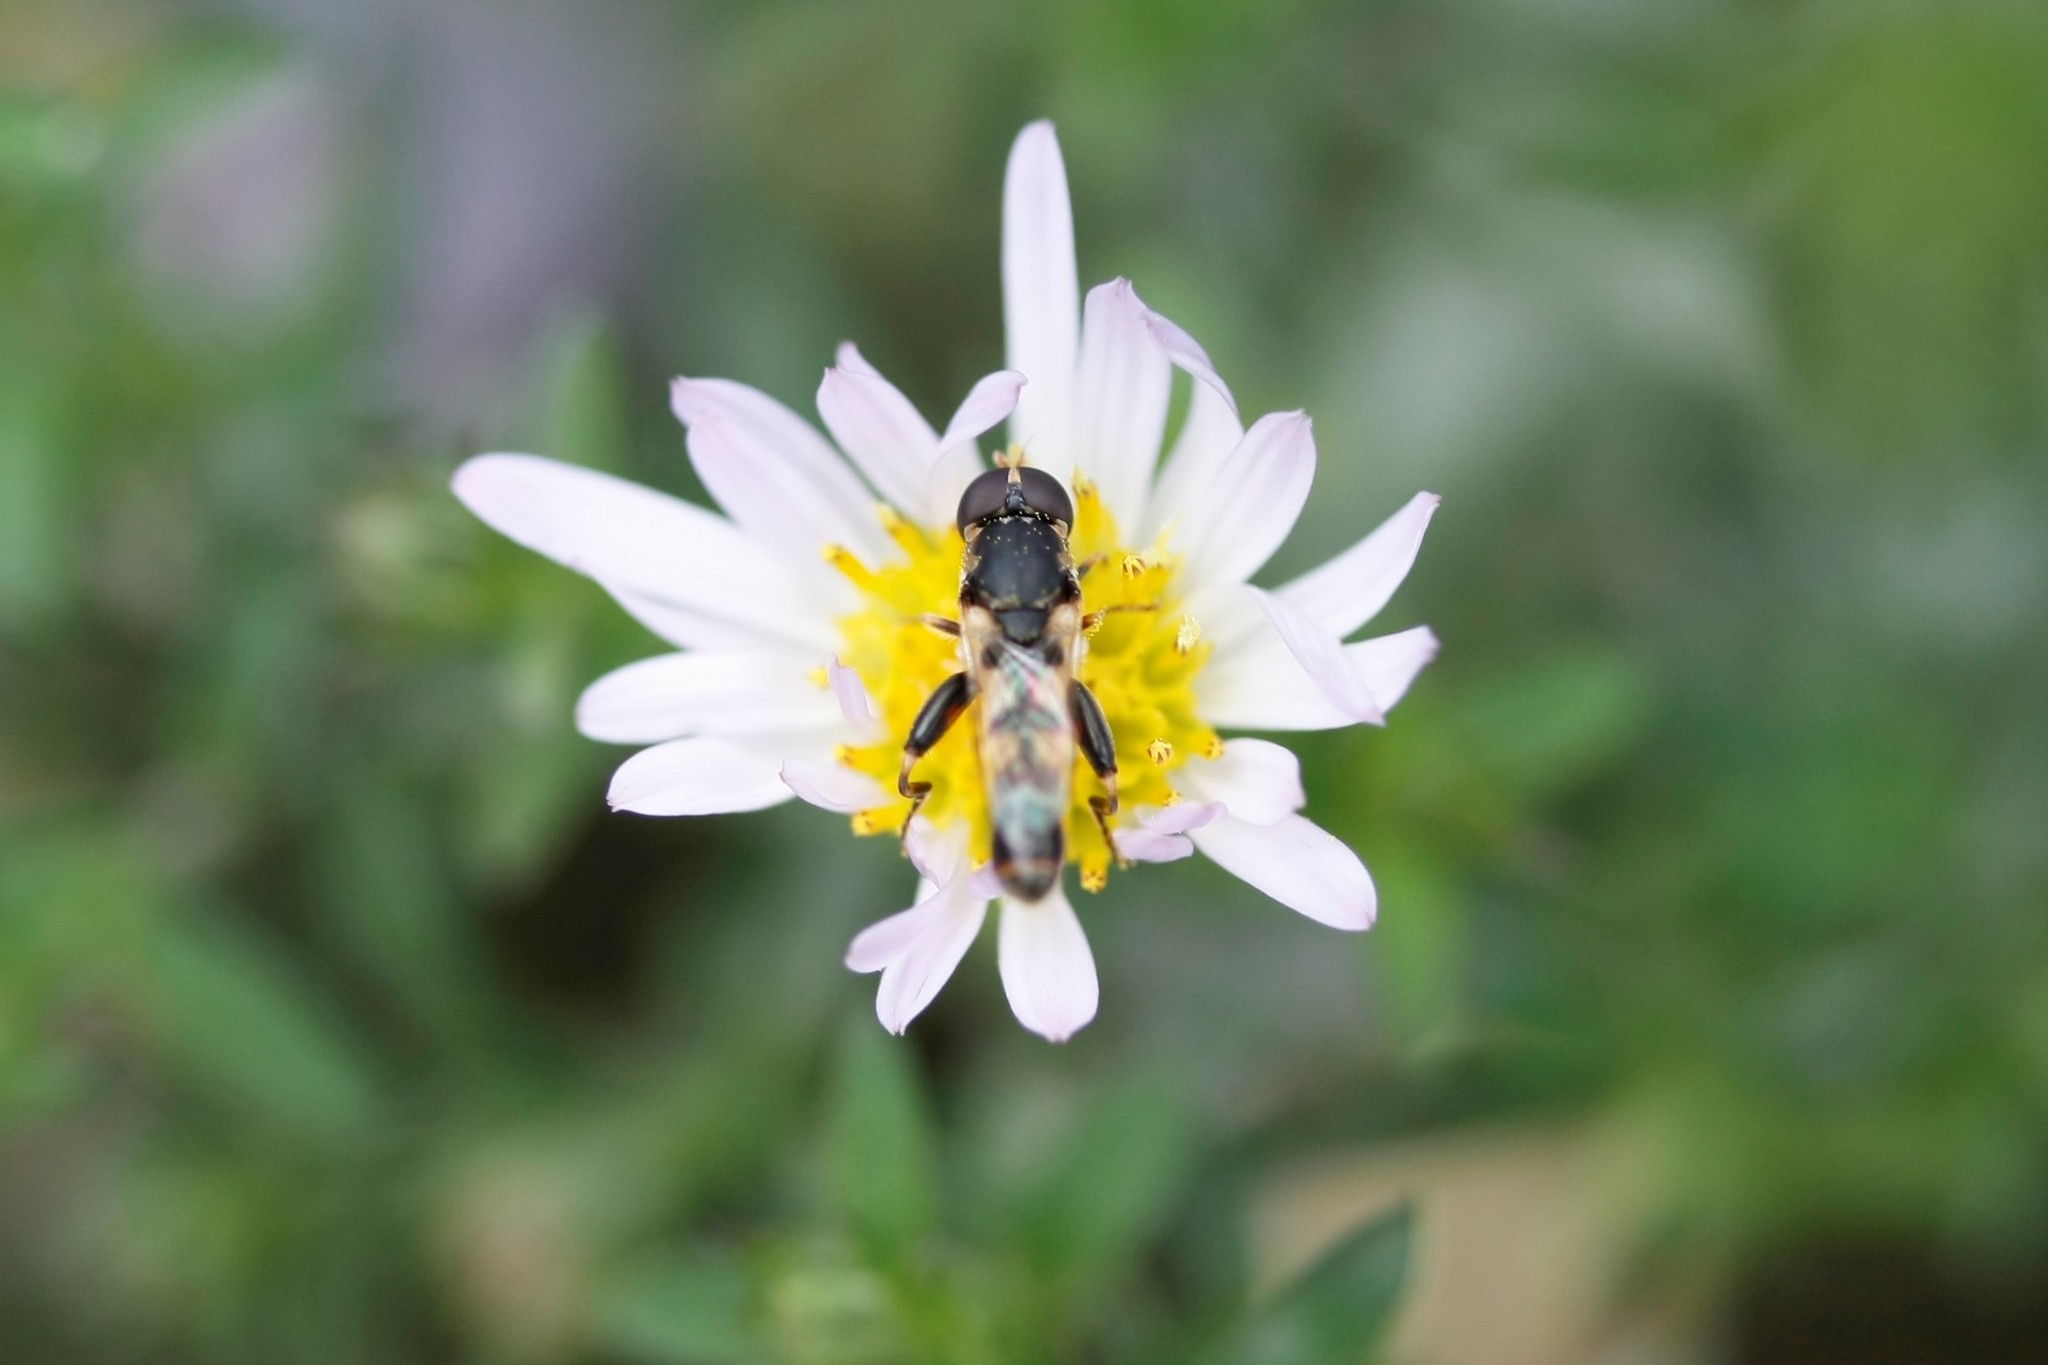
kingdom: Animalia
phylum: Arthropoda
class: Insecta
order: Diptera
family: Syrphidae
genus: Syritta
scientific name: Syritta pipiens
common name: Hover fly
